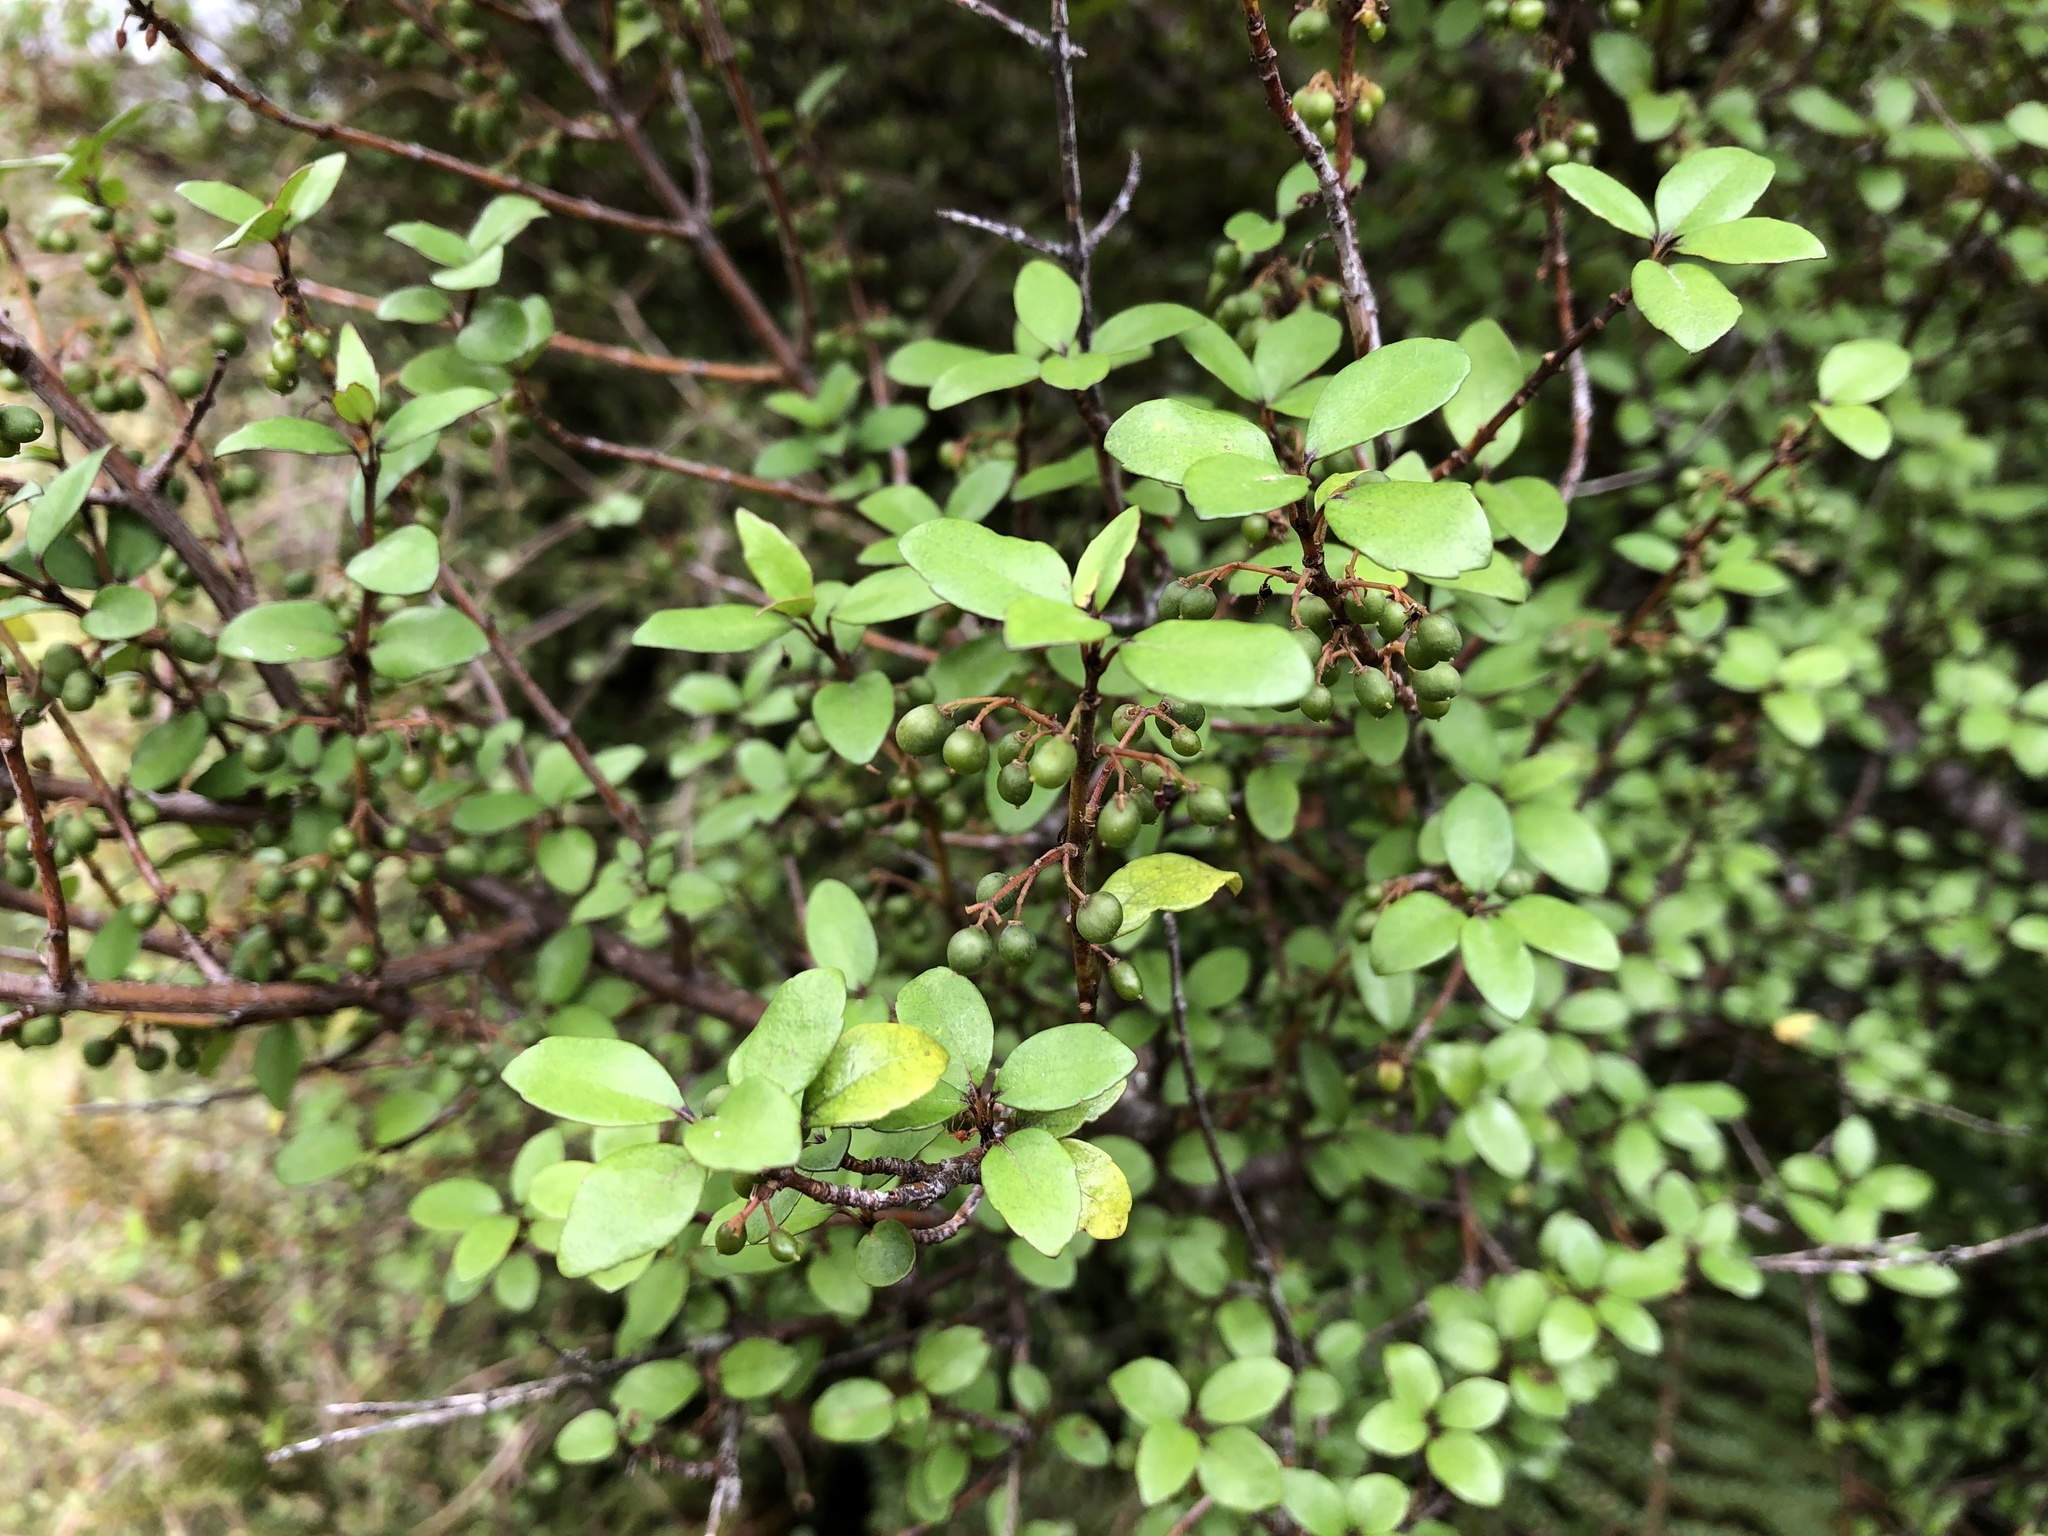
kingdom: Plantae
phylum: Tracheophyta
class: Magnoliopsida
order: Oxalidales
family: Elaeocarpaceae
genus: Aristotelia
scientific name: Aristotelia fruticosa
